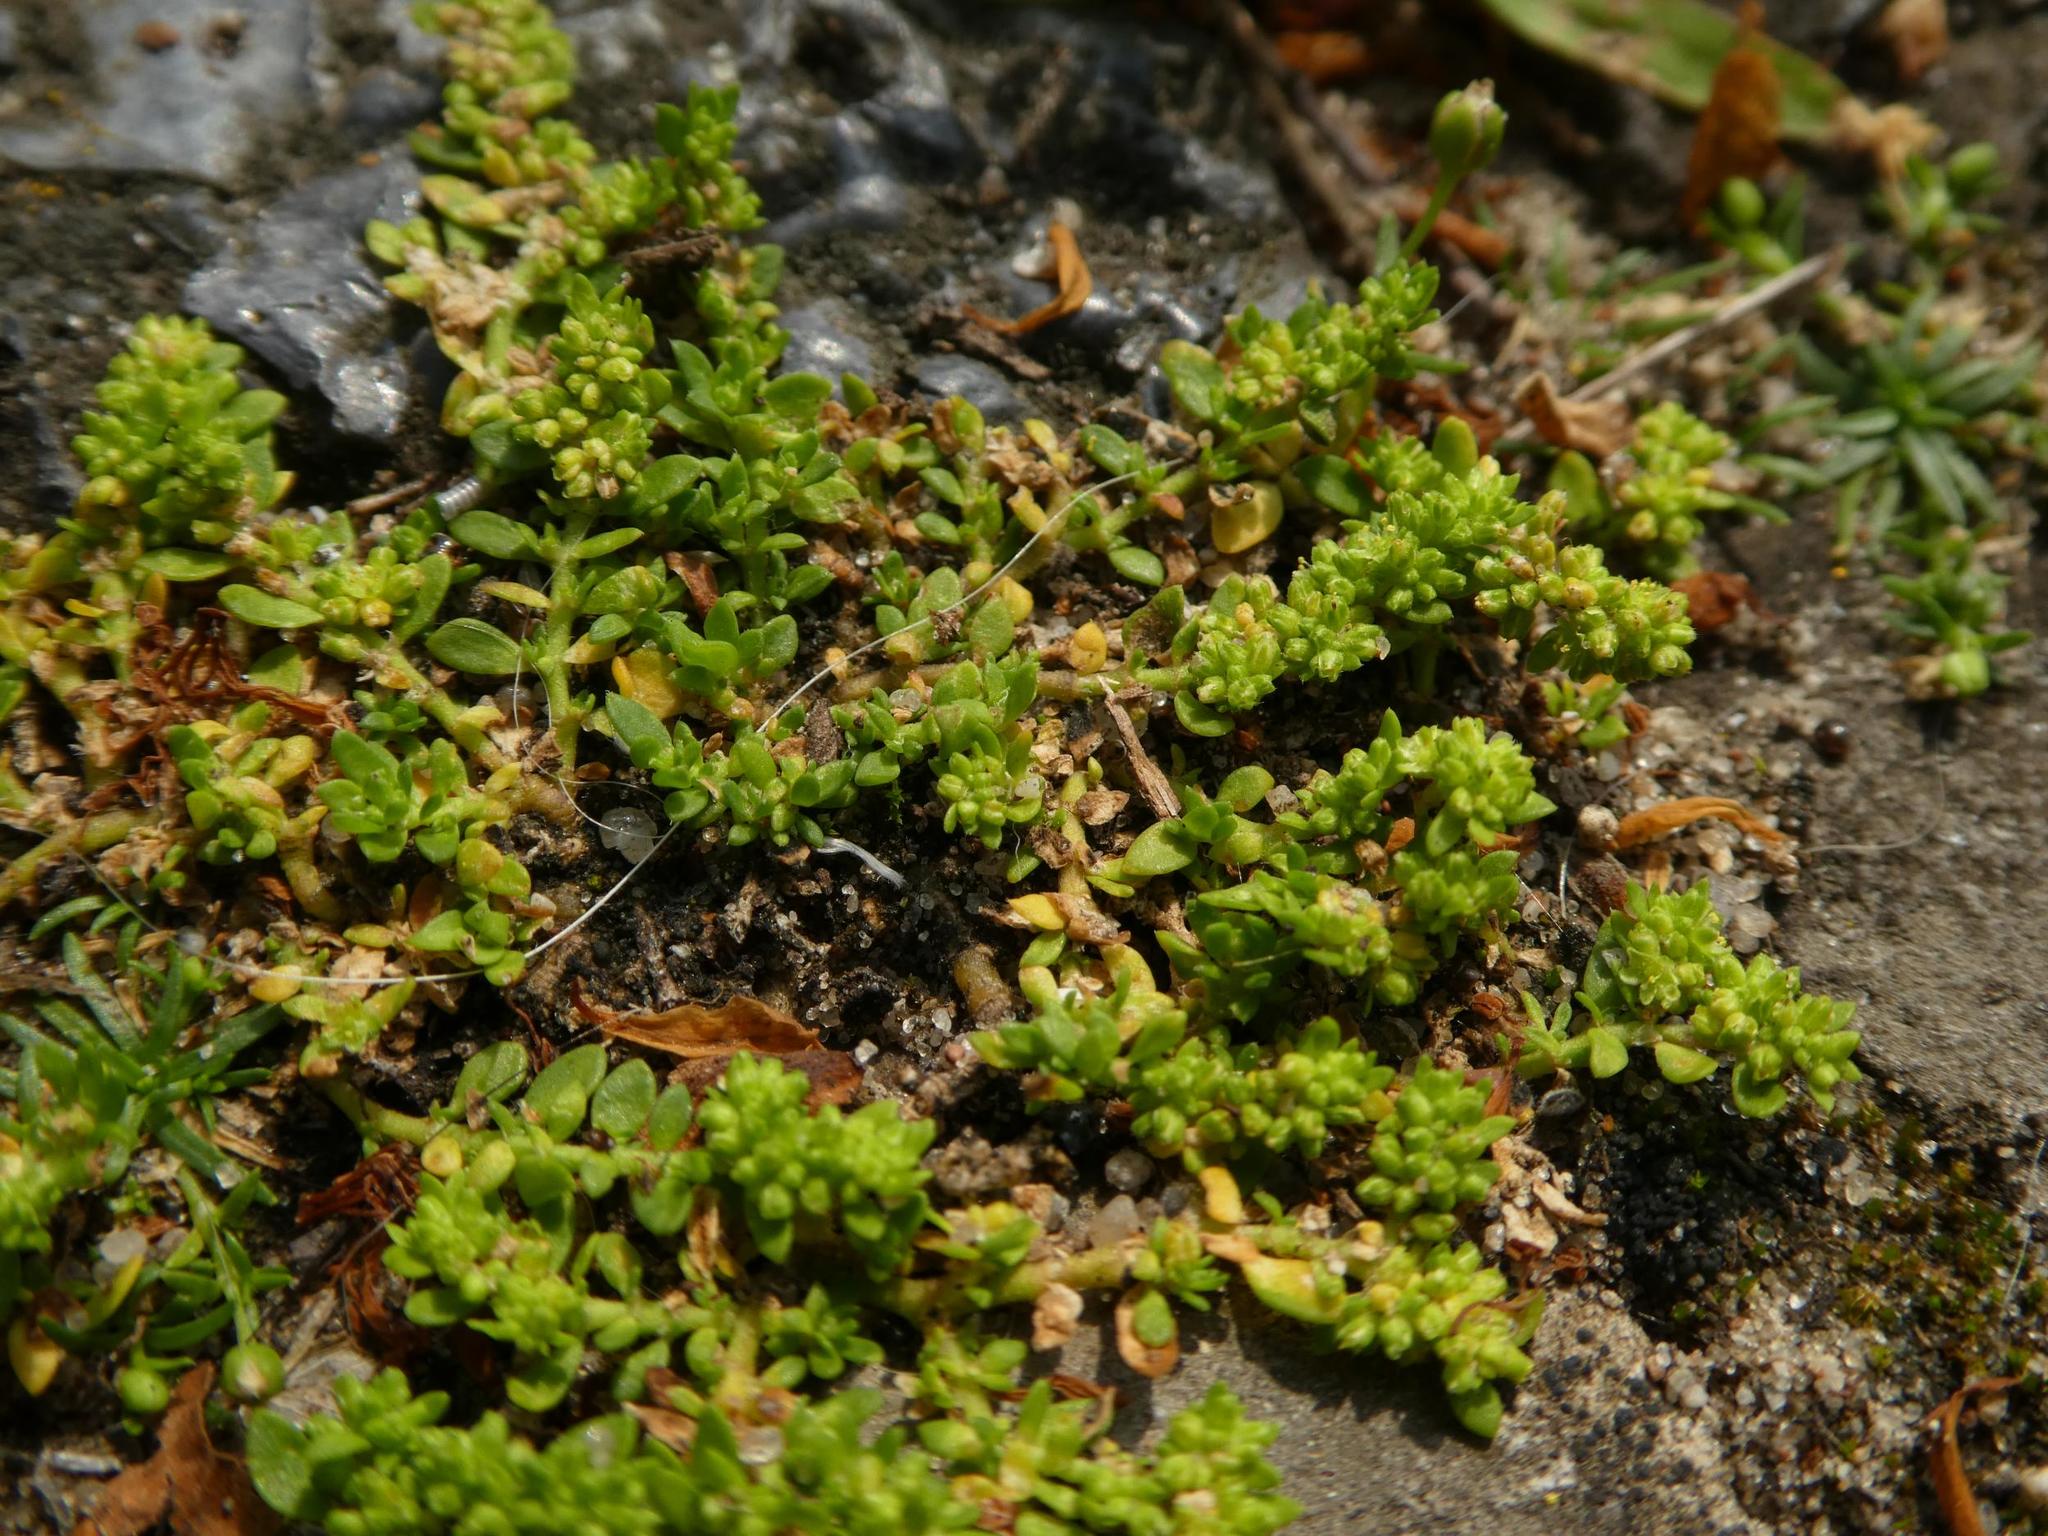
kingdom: Plantae
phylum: Tracheophyta
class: Magnoliopsida
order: Caryophyllales
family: Caryophyllaceae
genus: Herniaria
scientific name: Herniaria glabra
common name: Smooth rupturewort
